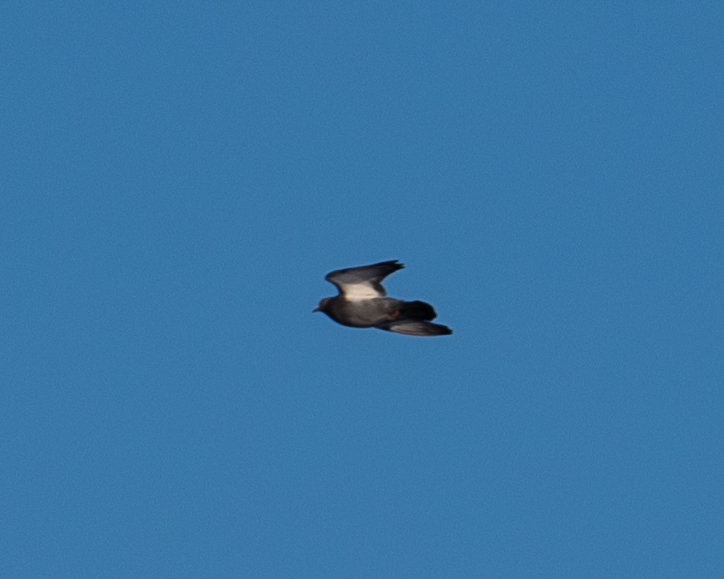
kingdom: Animalia
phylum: Chordata
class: Aves
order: Columbiformes
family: Columbidae
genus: Columba
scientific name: Columba livia
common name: Rock pigeon
